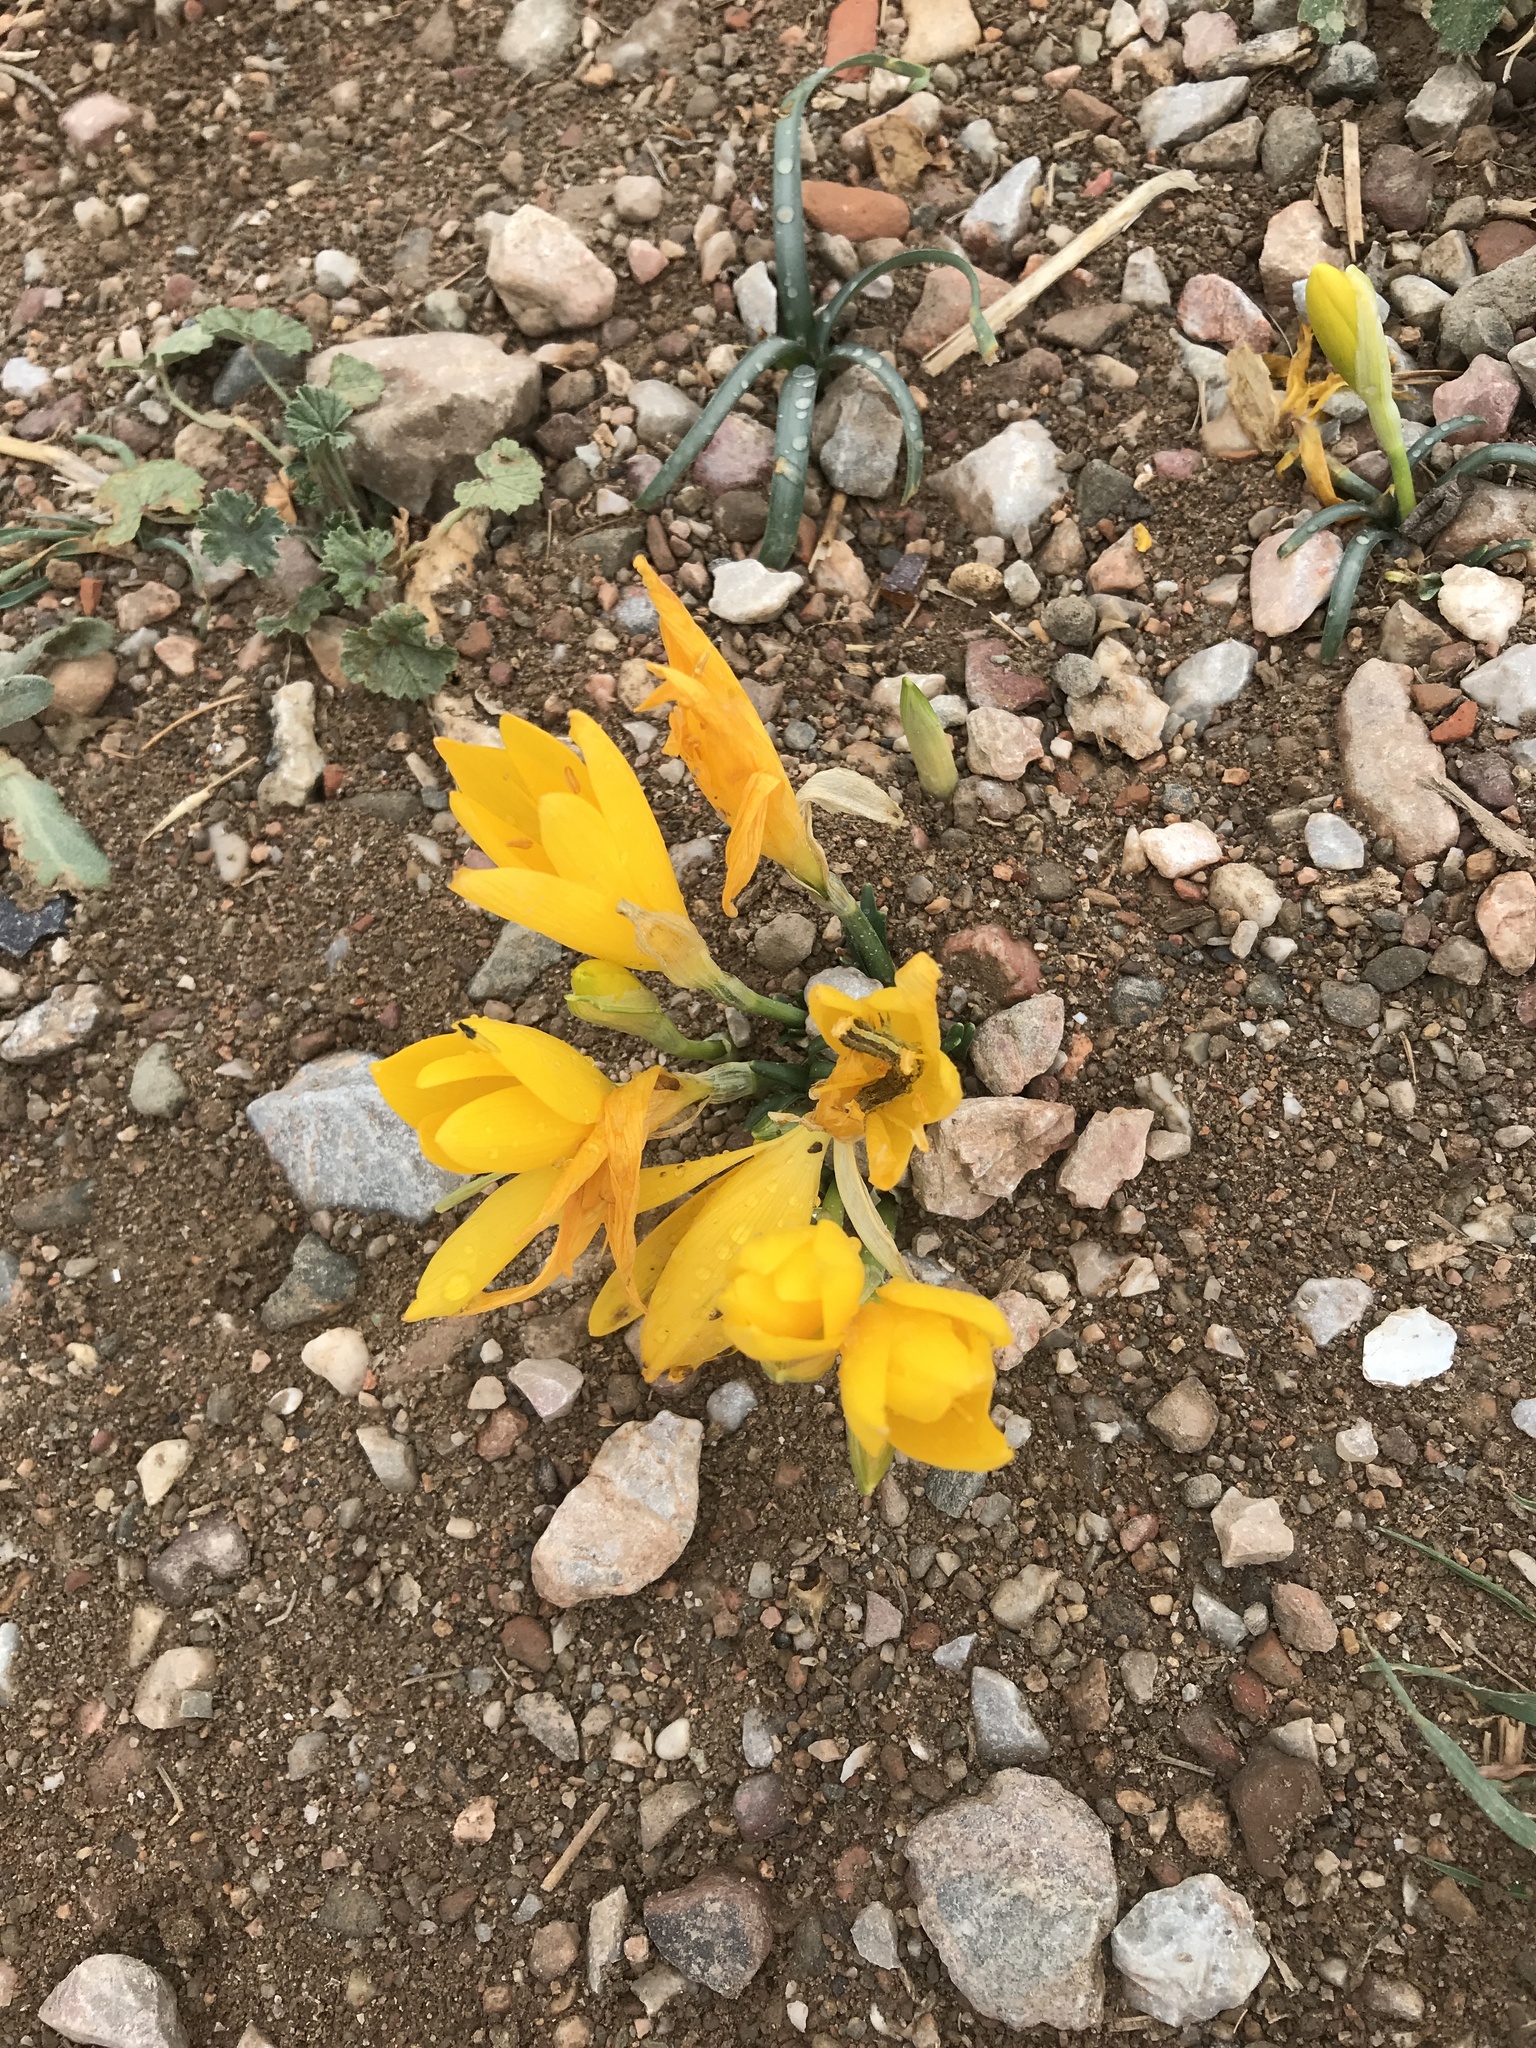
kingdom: Plantae
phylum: Tracheophyta
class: Liliopsida
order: Asparagales
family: Amaryllidaceae
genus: Sternbergia
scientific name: Sternbergia lutea
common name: Winter daffodil
